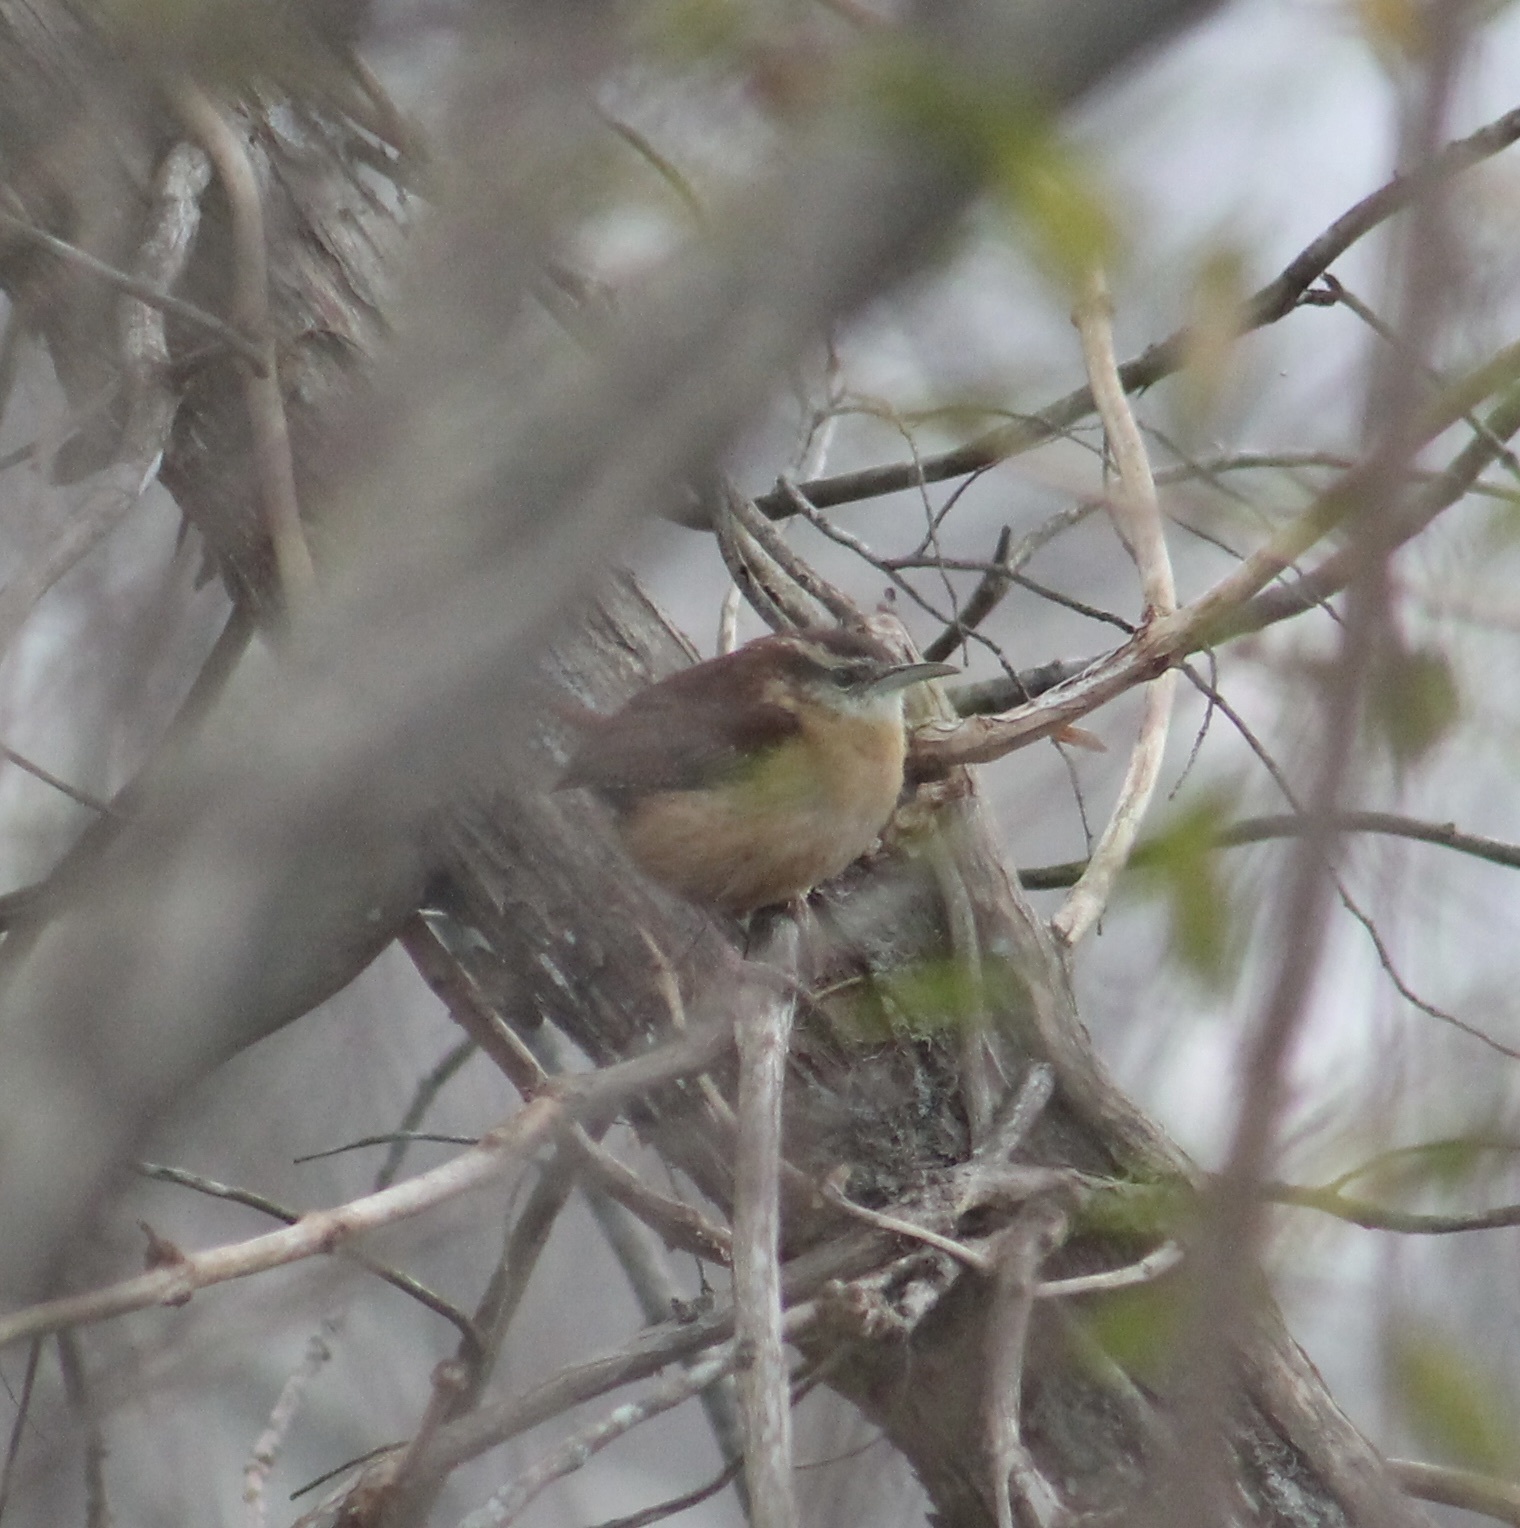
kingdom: Animalia
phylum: Chordata
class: Aves
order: Passeriformes
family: Troglodytidae
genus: Thryothorus
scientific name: Thryothorus ludovicianus
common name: Carolina wren
